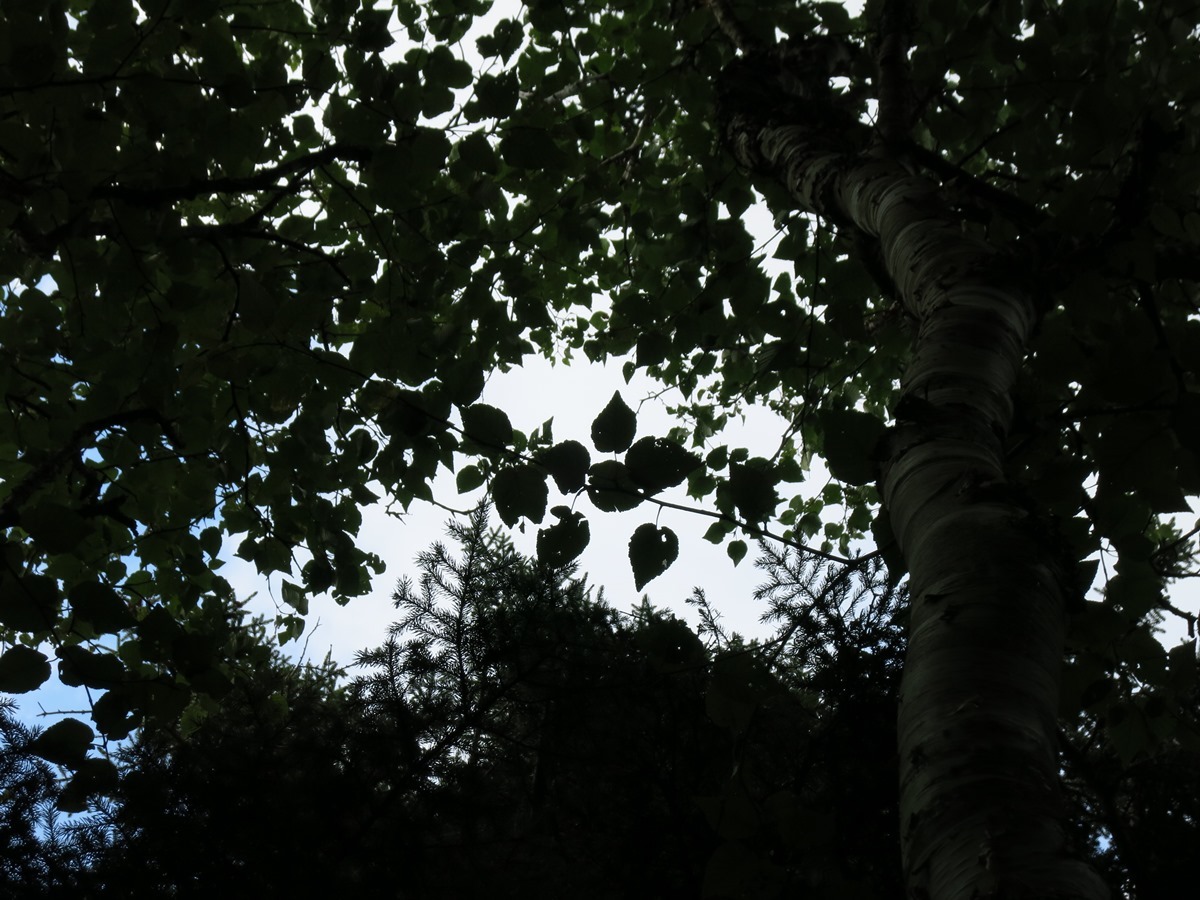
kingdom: Plantae
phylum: Tracheophyta
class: Magnoliopsida
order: Fagales
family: Betulaceae
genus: Betula
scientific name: Betula cordifolia
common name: Mountain white birch
